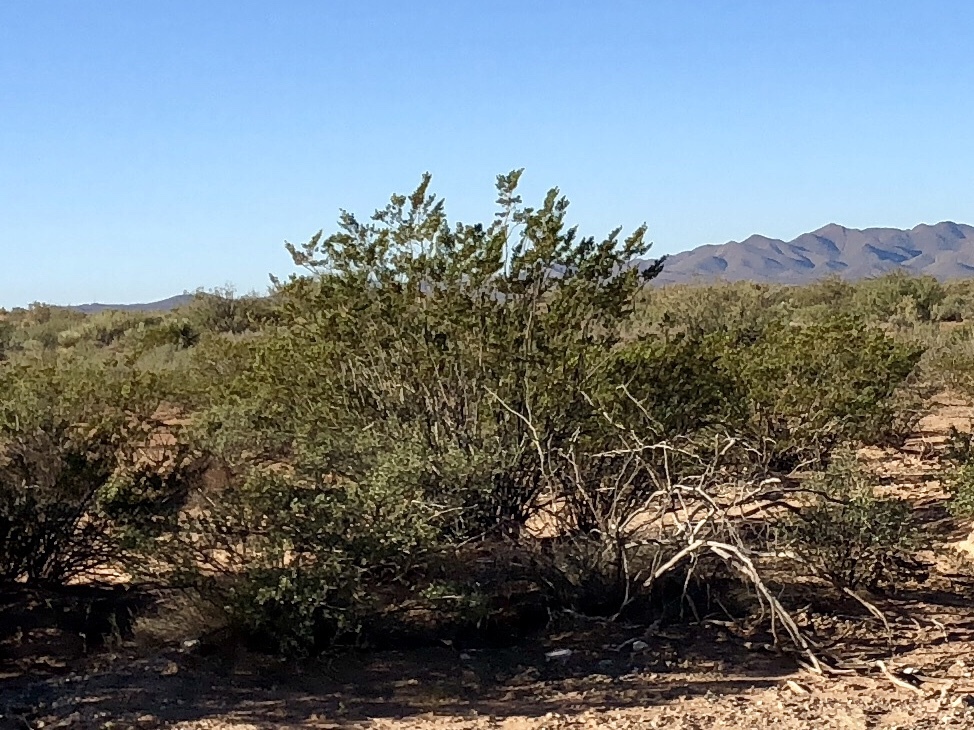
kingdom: Plantae
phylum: Tracheophyta
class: Magnoliopsida
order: Zygophyllales
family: Zygophyllaceae
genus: Larrea
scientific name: Larrea tridentata
